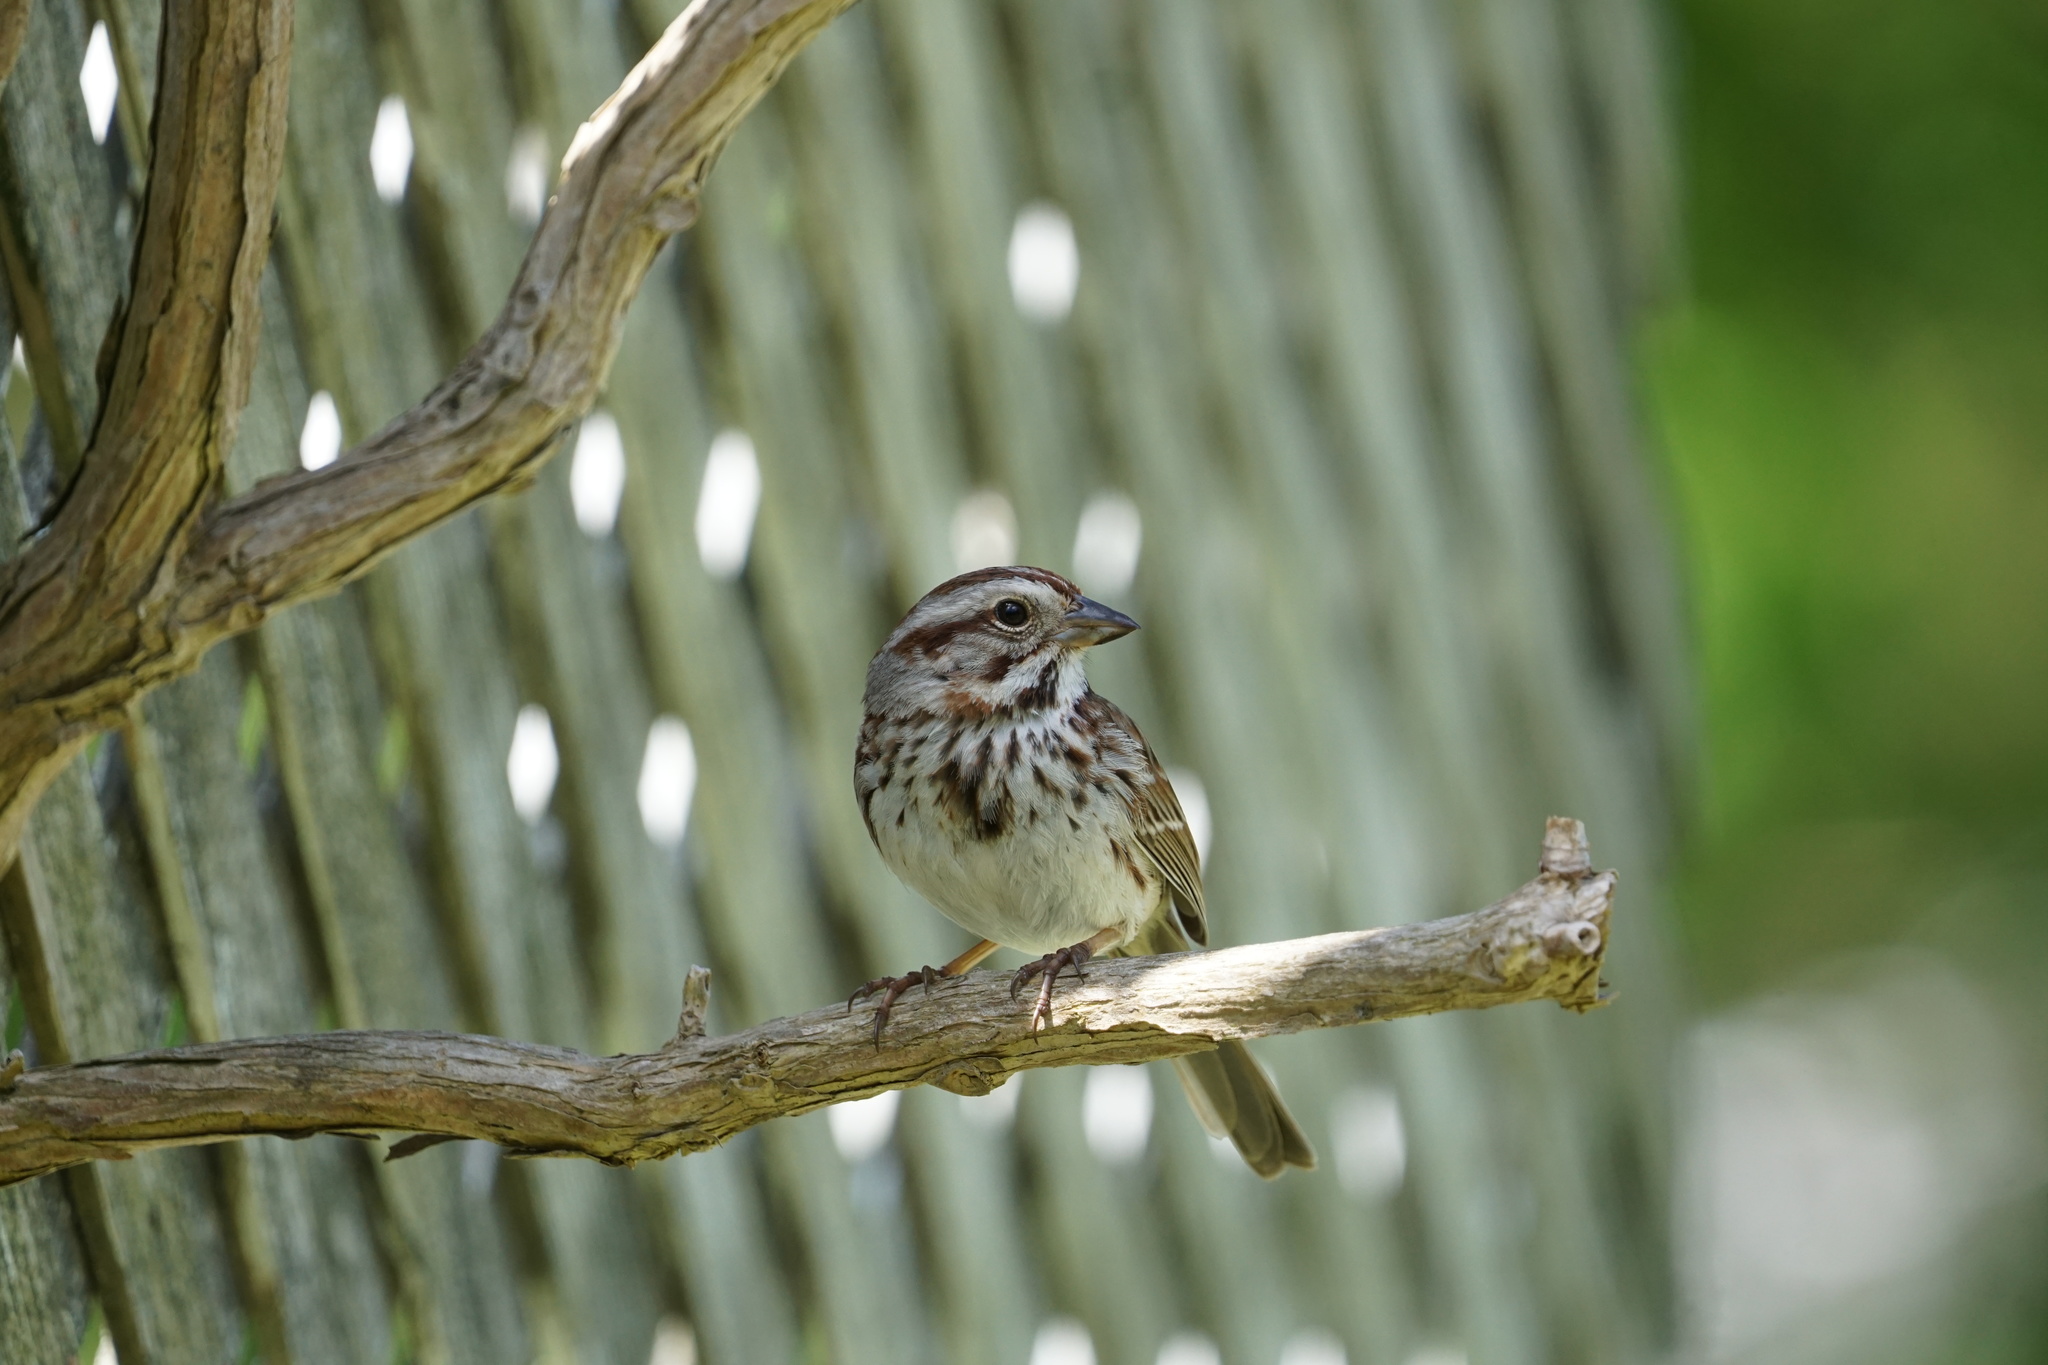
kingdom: Animalia
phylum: Chordata
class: Aves
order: Passeriformes
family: Passerellidae
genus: Melospiza
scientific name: Melospiza melodia
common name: Song sparrow
